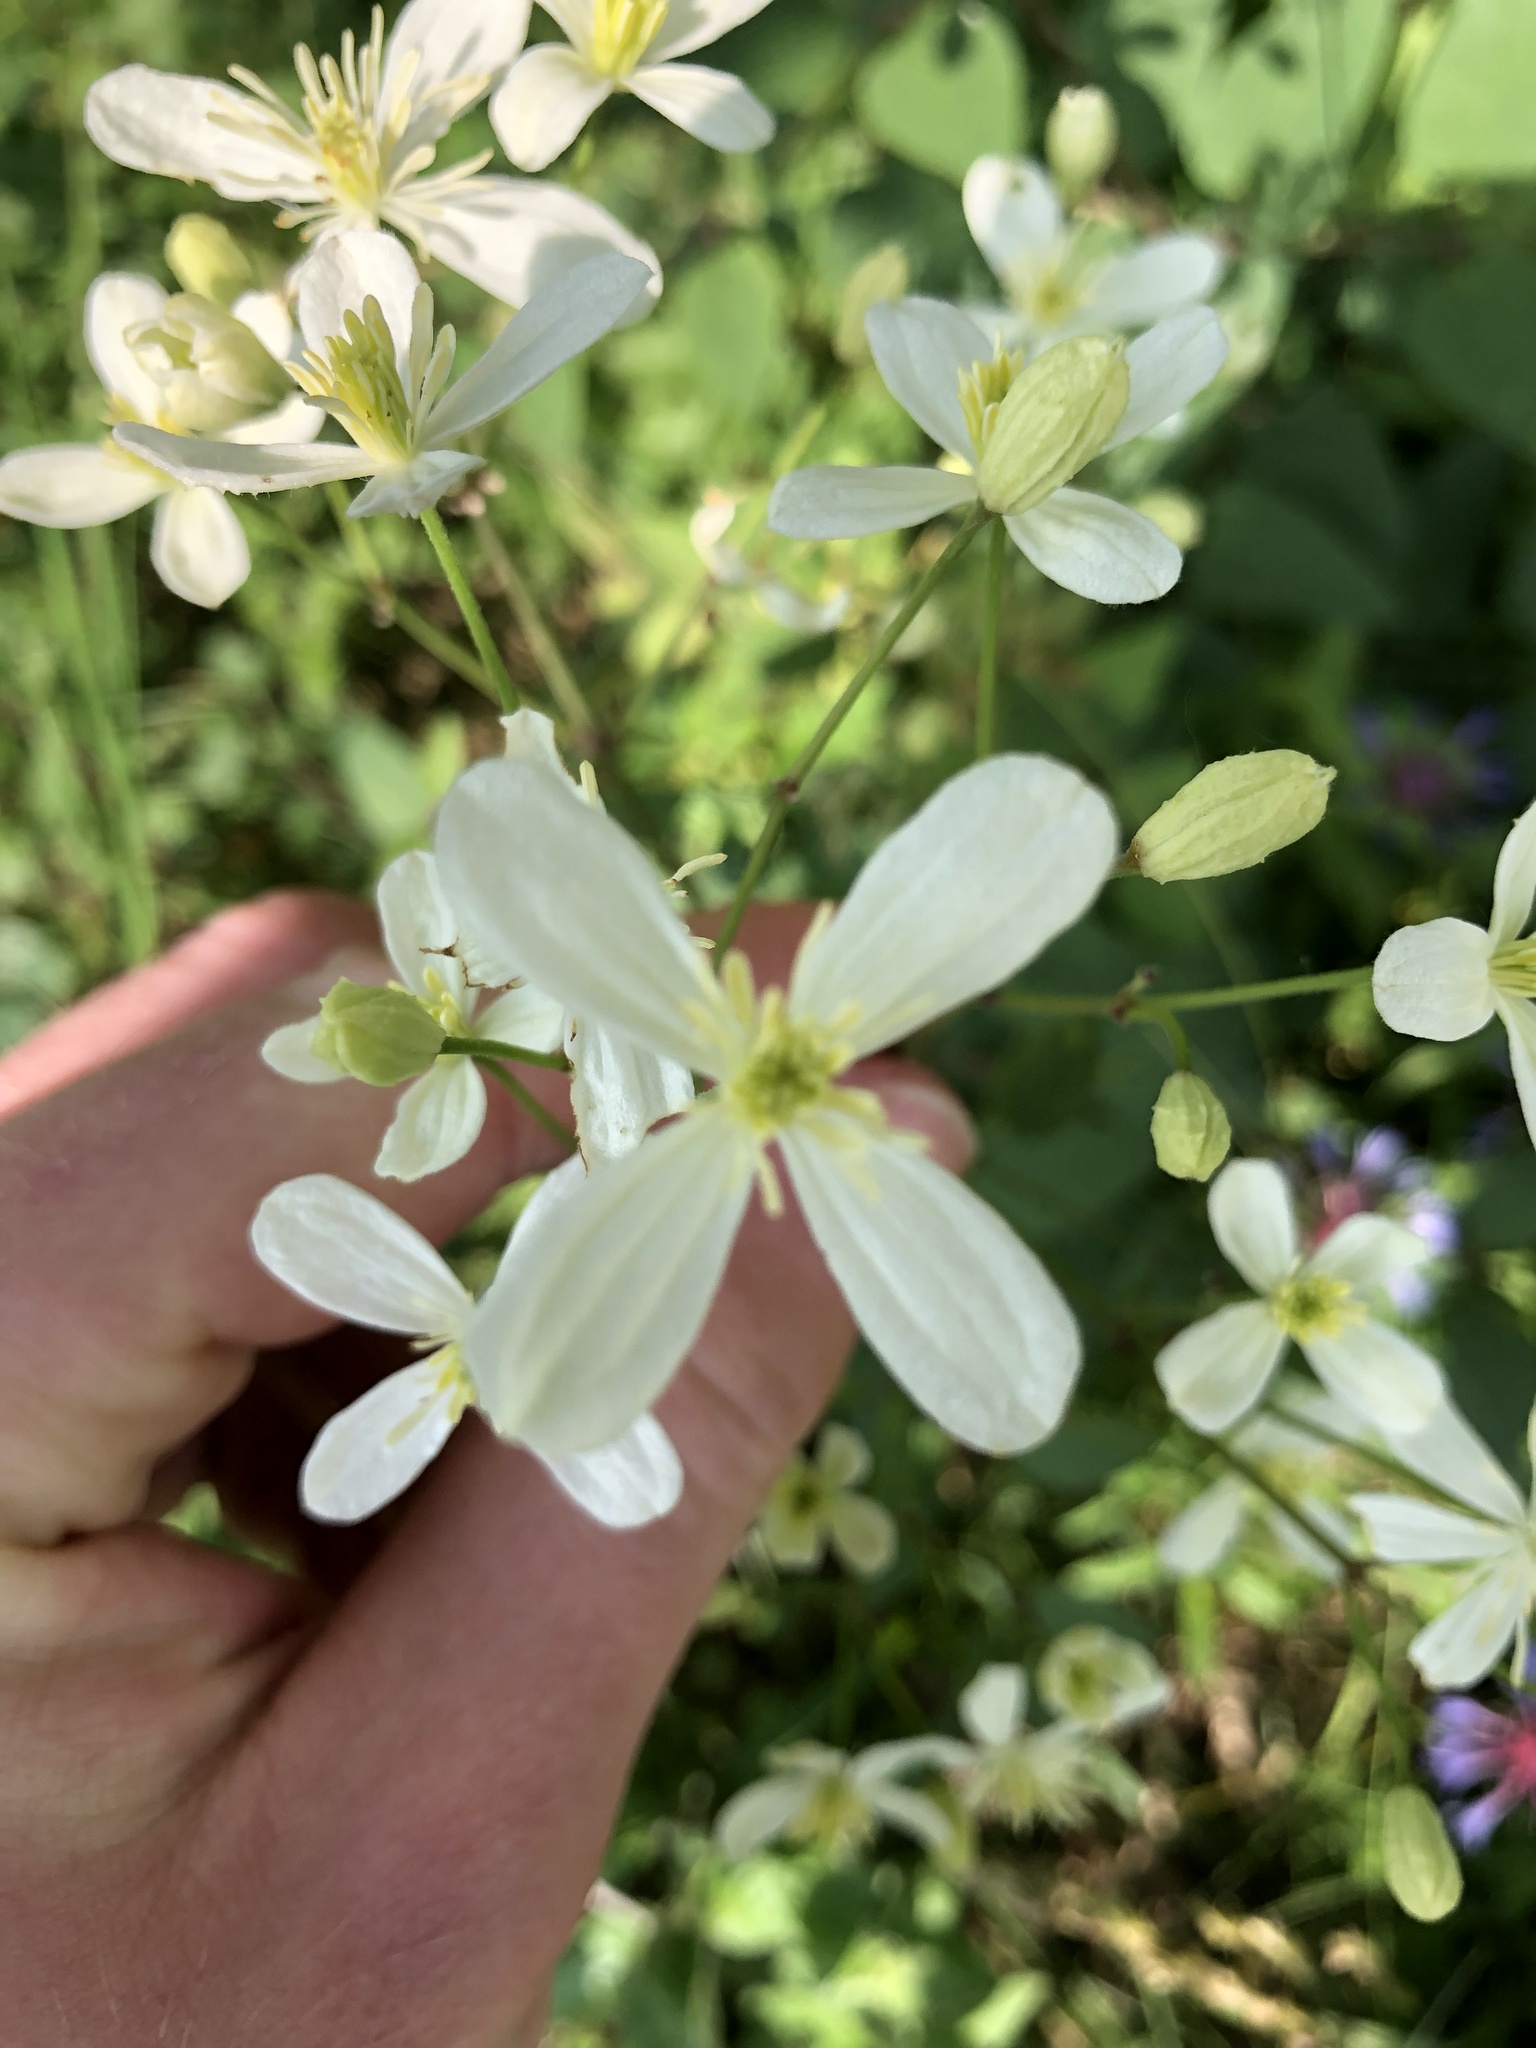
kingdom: Plantae
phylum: Tracheophyta
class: Magnoliopsida
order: Ranunculales
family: Ranunculaceae
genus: Clematis
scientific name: Clematis recta
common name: Ground clematis
